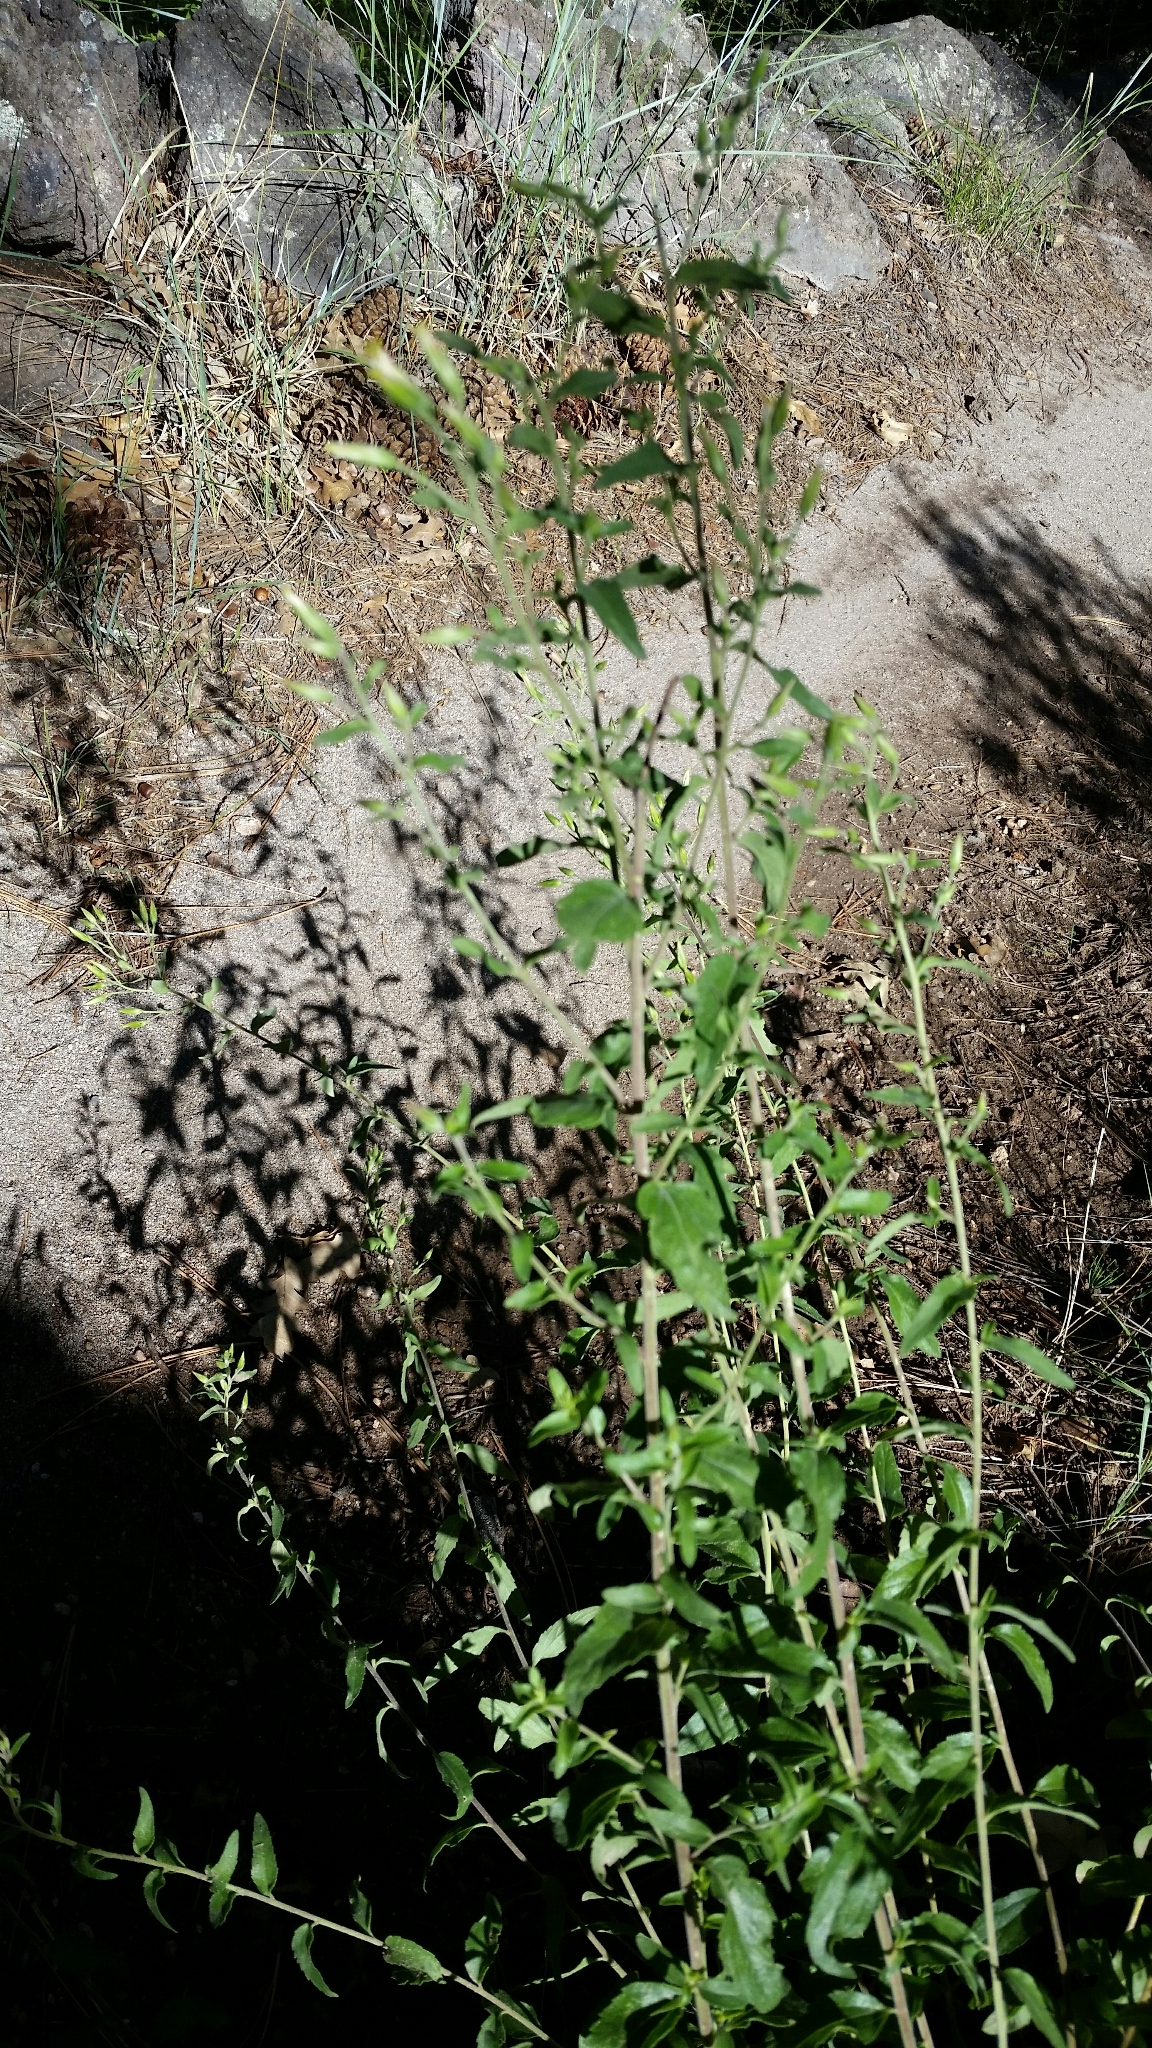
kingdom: Plantae
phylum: Tracheophyta
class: Magnoliopsida
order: Asterales
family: Asteraceae
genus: Brickellia
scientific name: Brickellia brachyphylla
